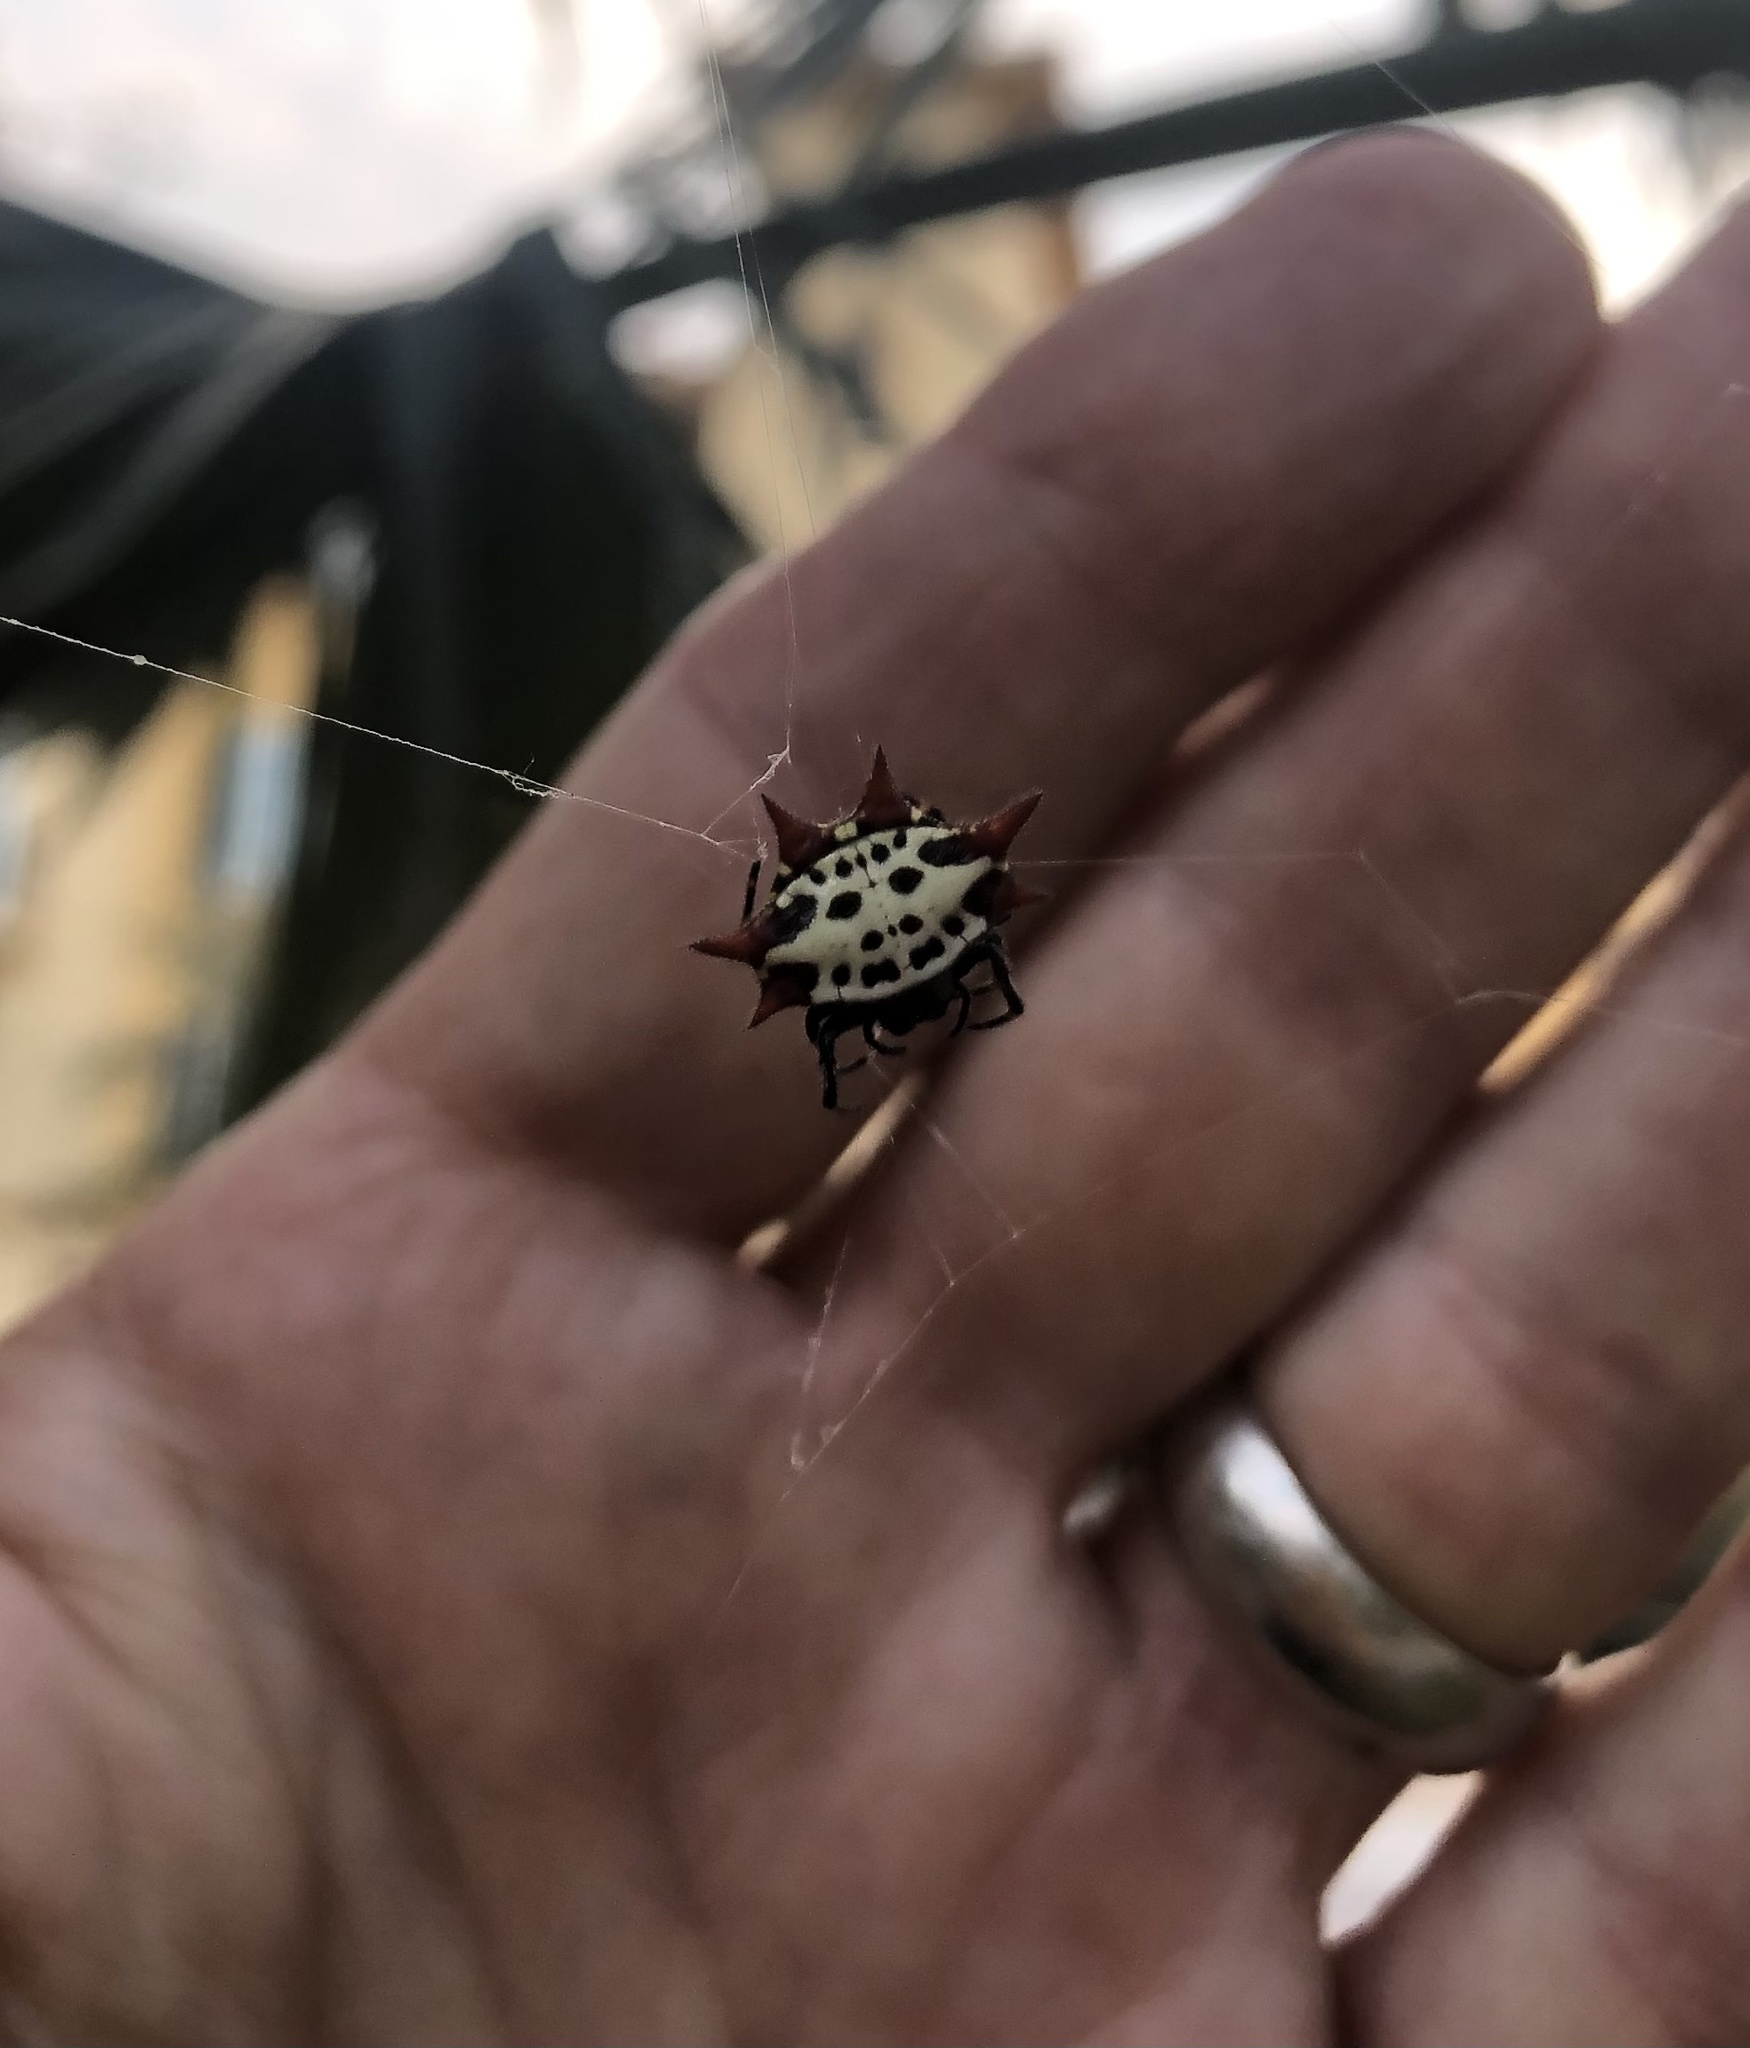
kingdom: Animalia
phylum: Arthropoda
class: Arachnida
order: Araneae
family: Araneidae
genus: Gasteracantha
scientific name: Gasteracantha cancriformis
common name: Orb weavers
